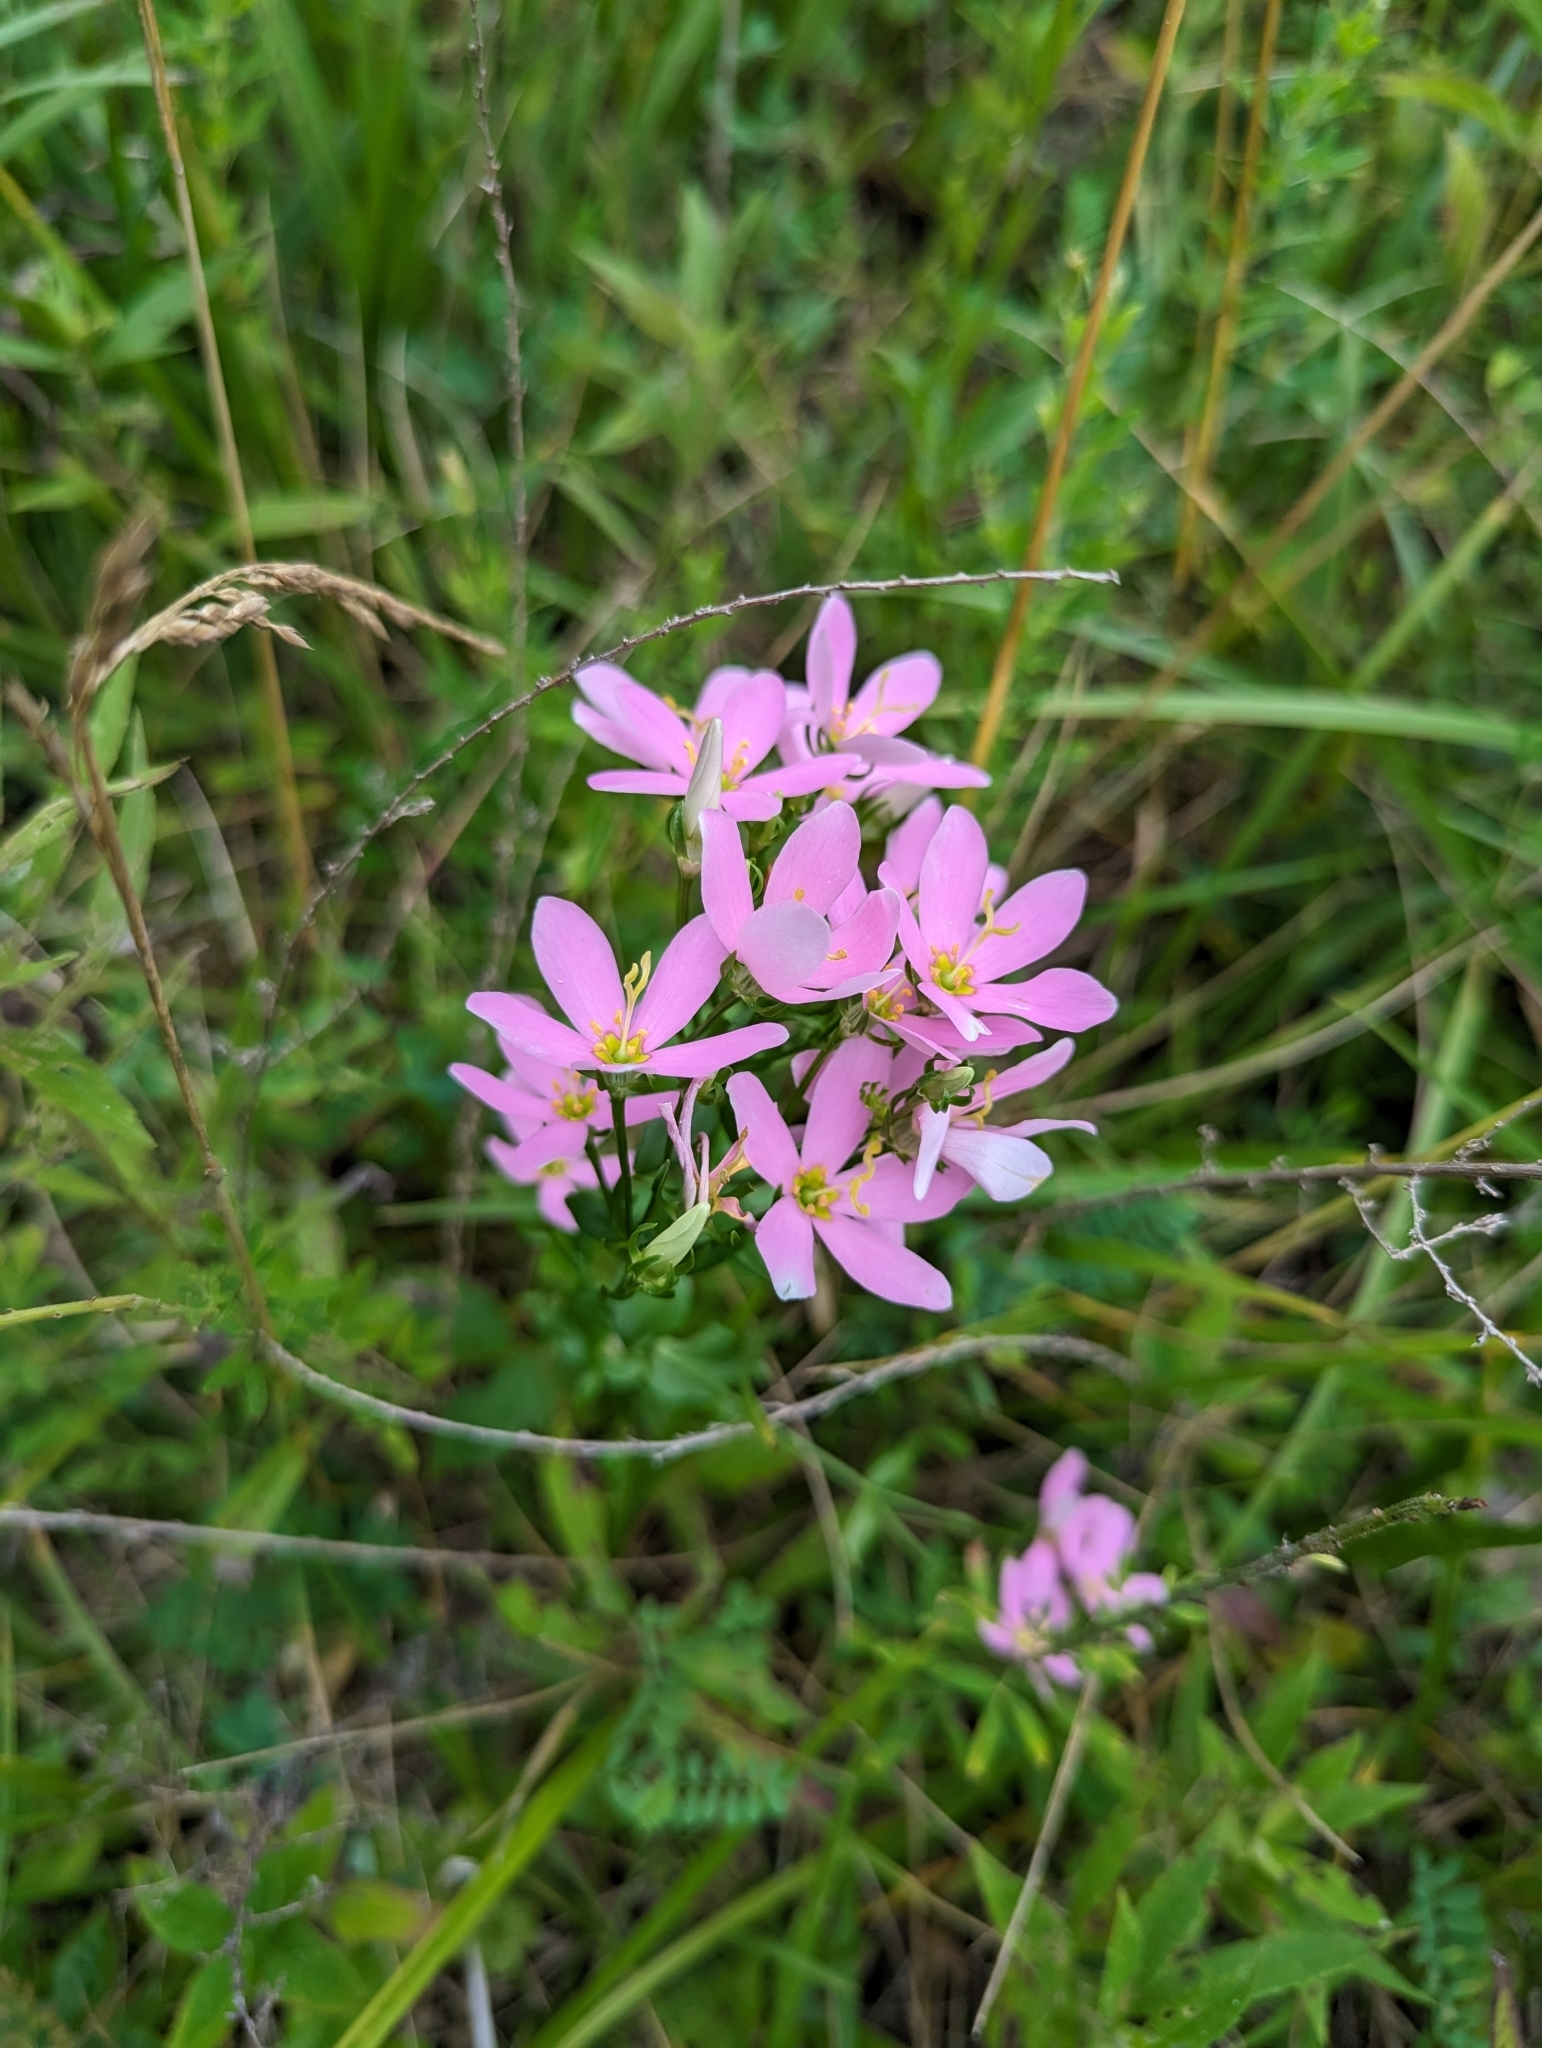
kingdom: Plantae
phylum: Tracheophyta
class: Magnoliopsida
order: Gentianales
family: Gentianaceae
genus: Sabatia
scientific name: Sabatia angularis
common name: Rose-pink
